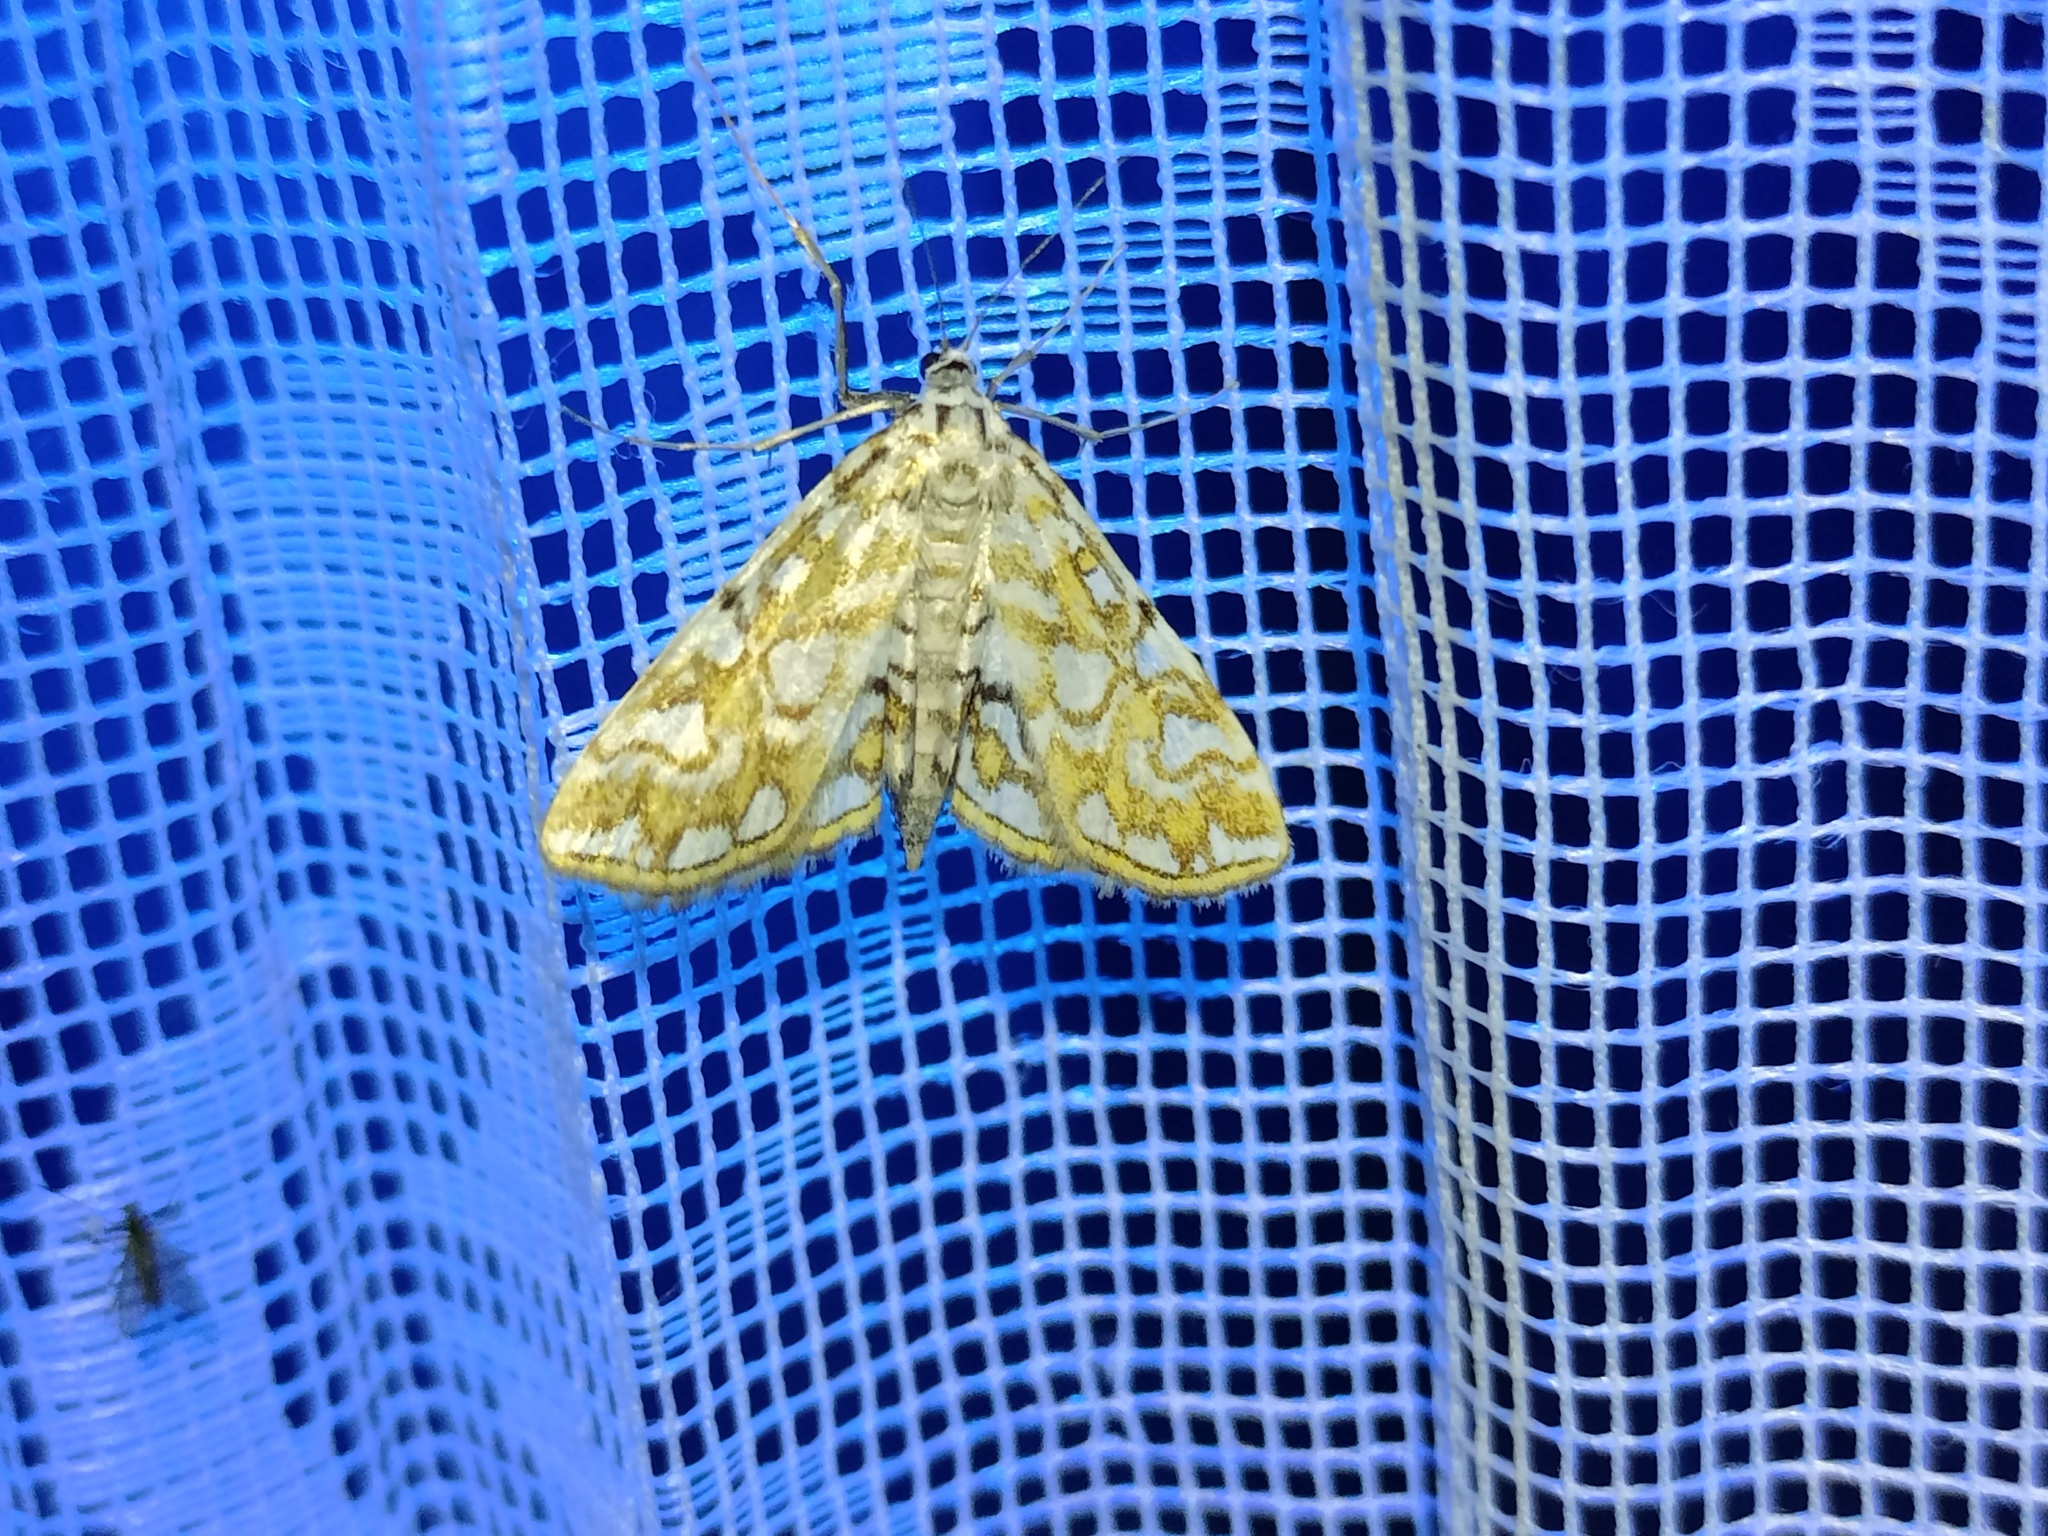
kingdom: Animalia
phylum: Arthropoda
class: Insecta
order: Lepidoptera
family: Crambidae
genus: Elophila
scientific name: Elophila nymphaeata
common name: Brown china-mark
